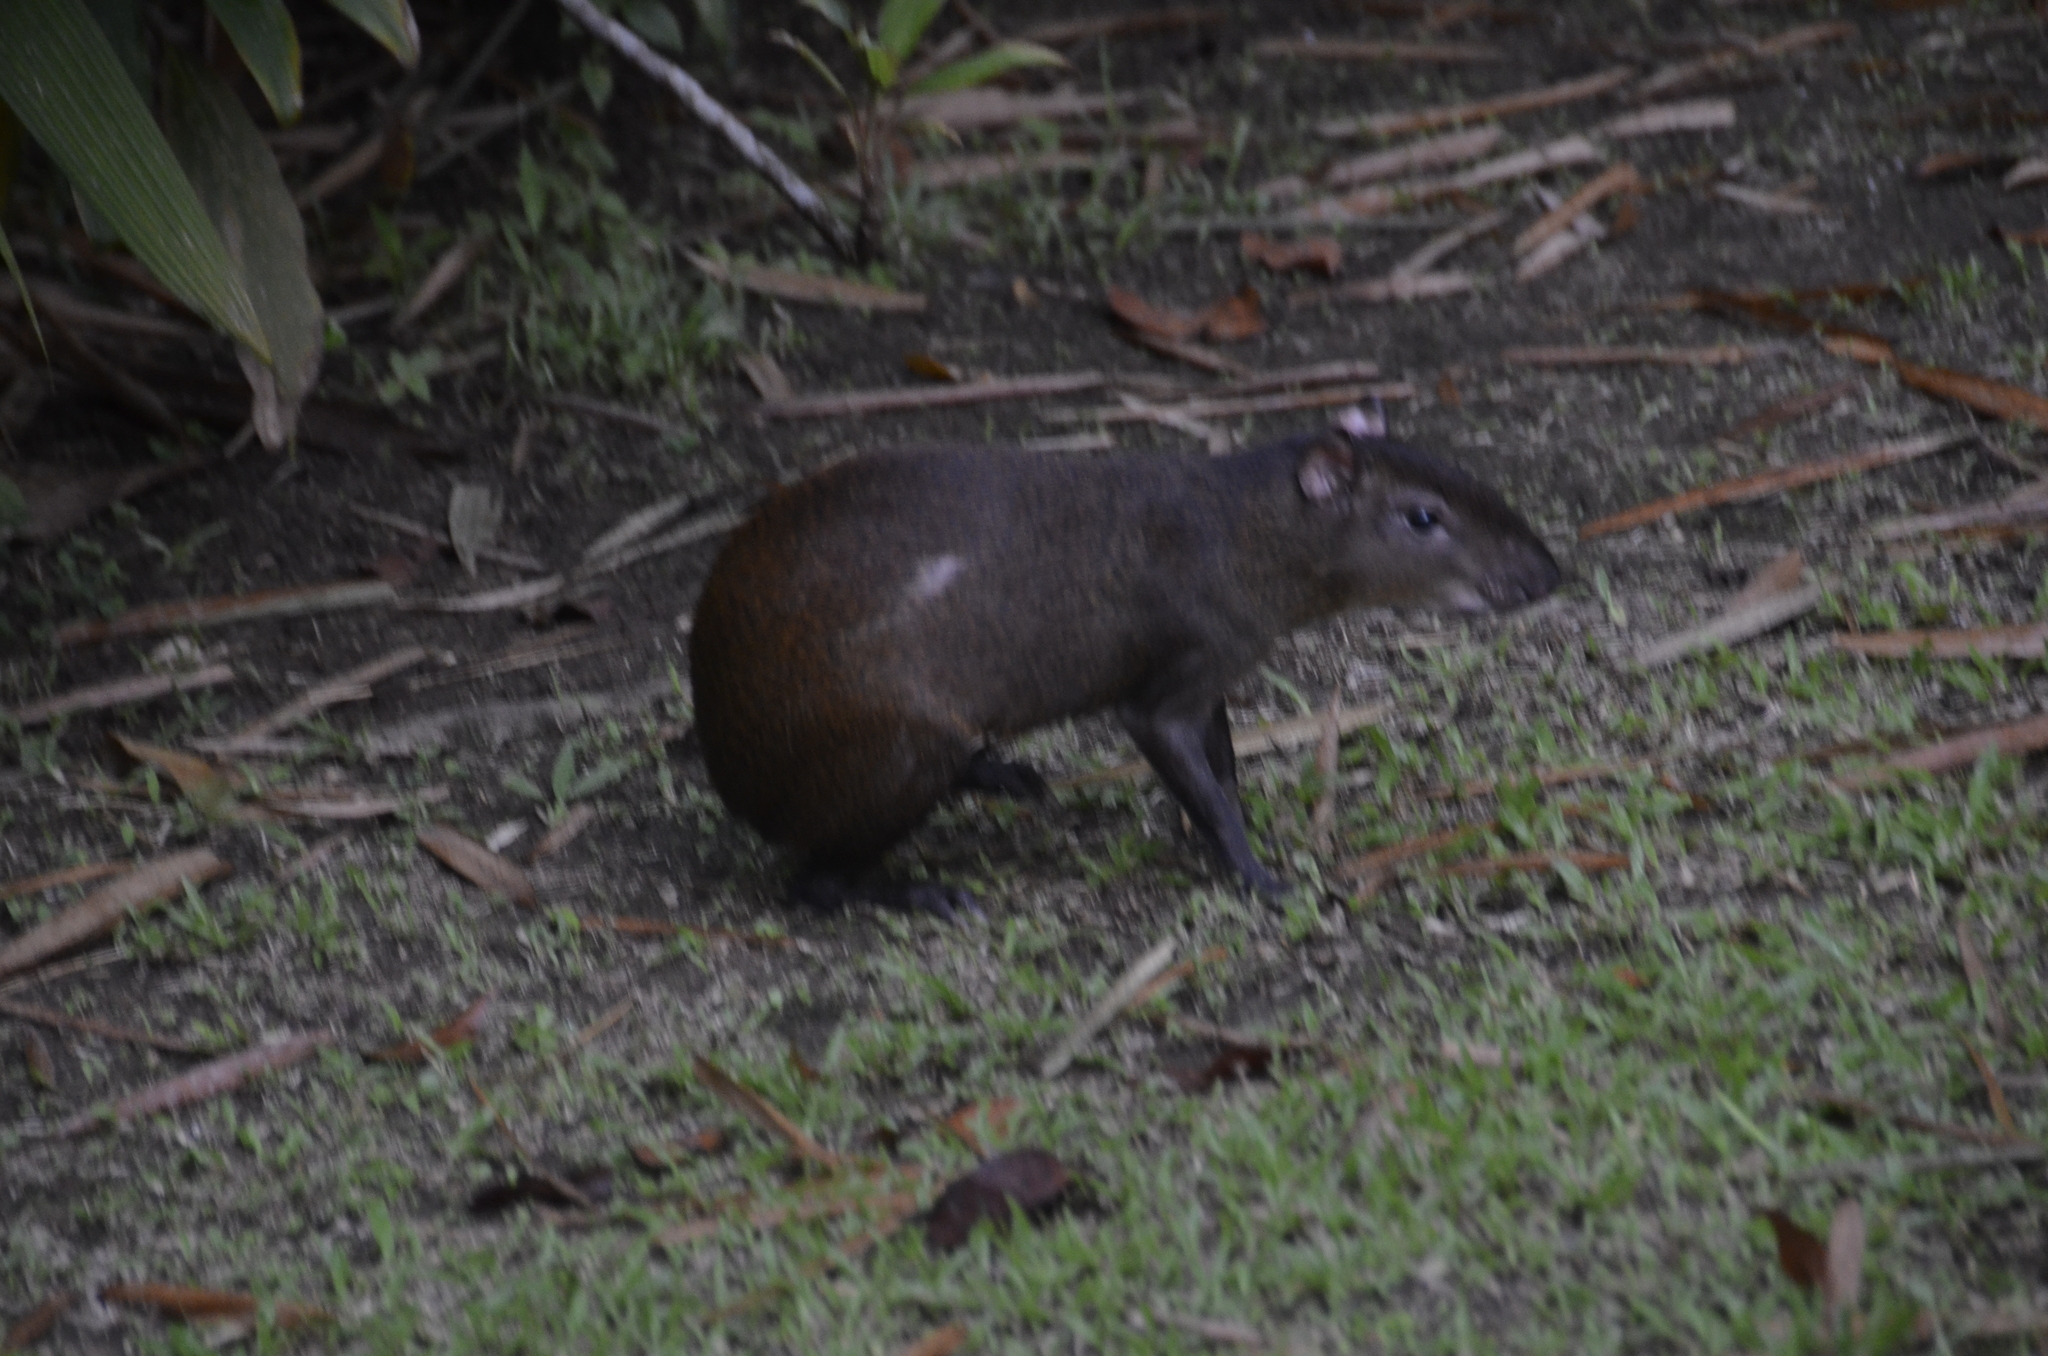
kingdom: Animalia
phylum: Chordata
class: Mammalia
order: Rodentia
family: Dasyproctidae
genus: Dasyprocta
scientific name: Dasyprocta punctata
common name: Central american agouti
